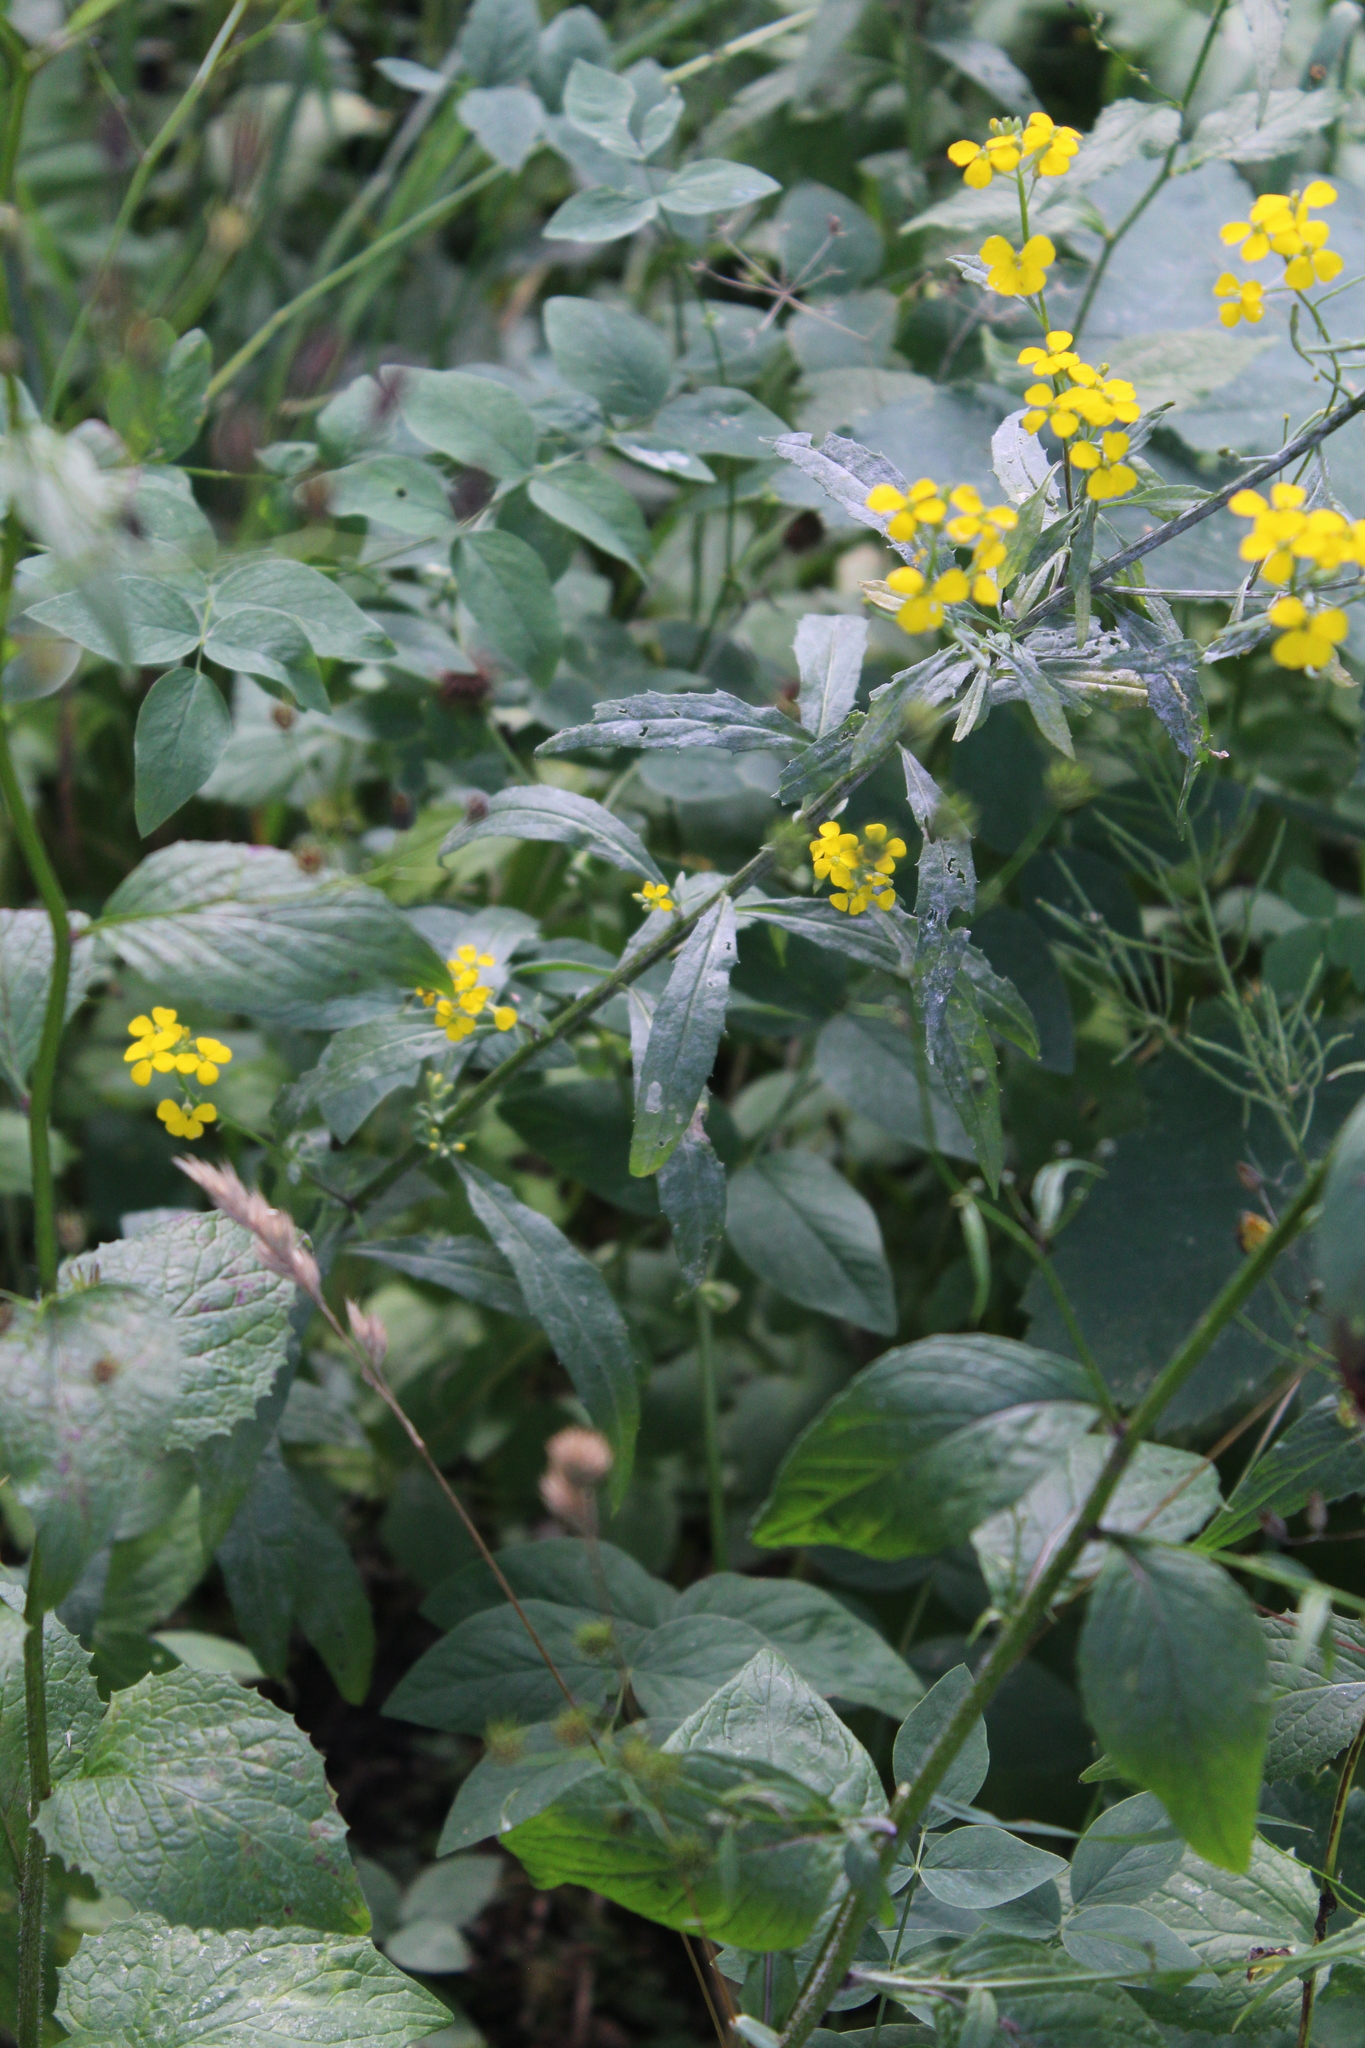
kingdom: Plantae
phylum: Tracheophyta
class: Magnoliopsida
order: Brassicales
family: Brassicaceae
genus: Erysimum
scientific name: Erysimum aureum
